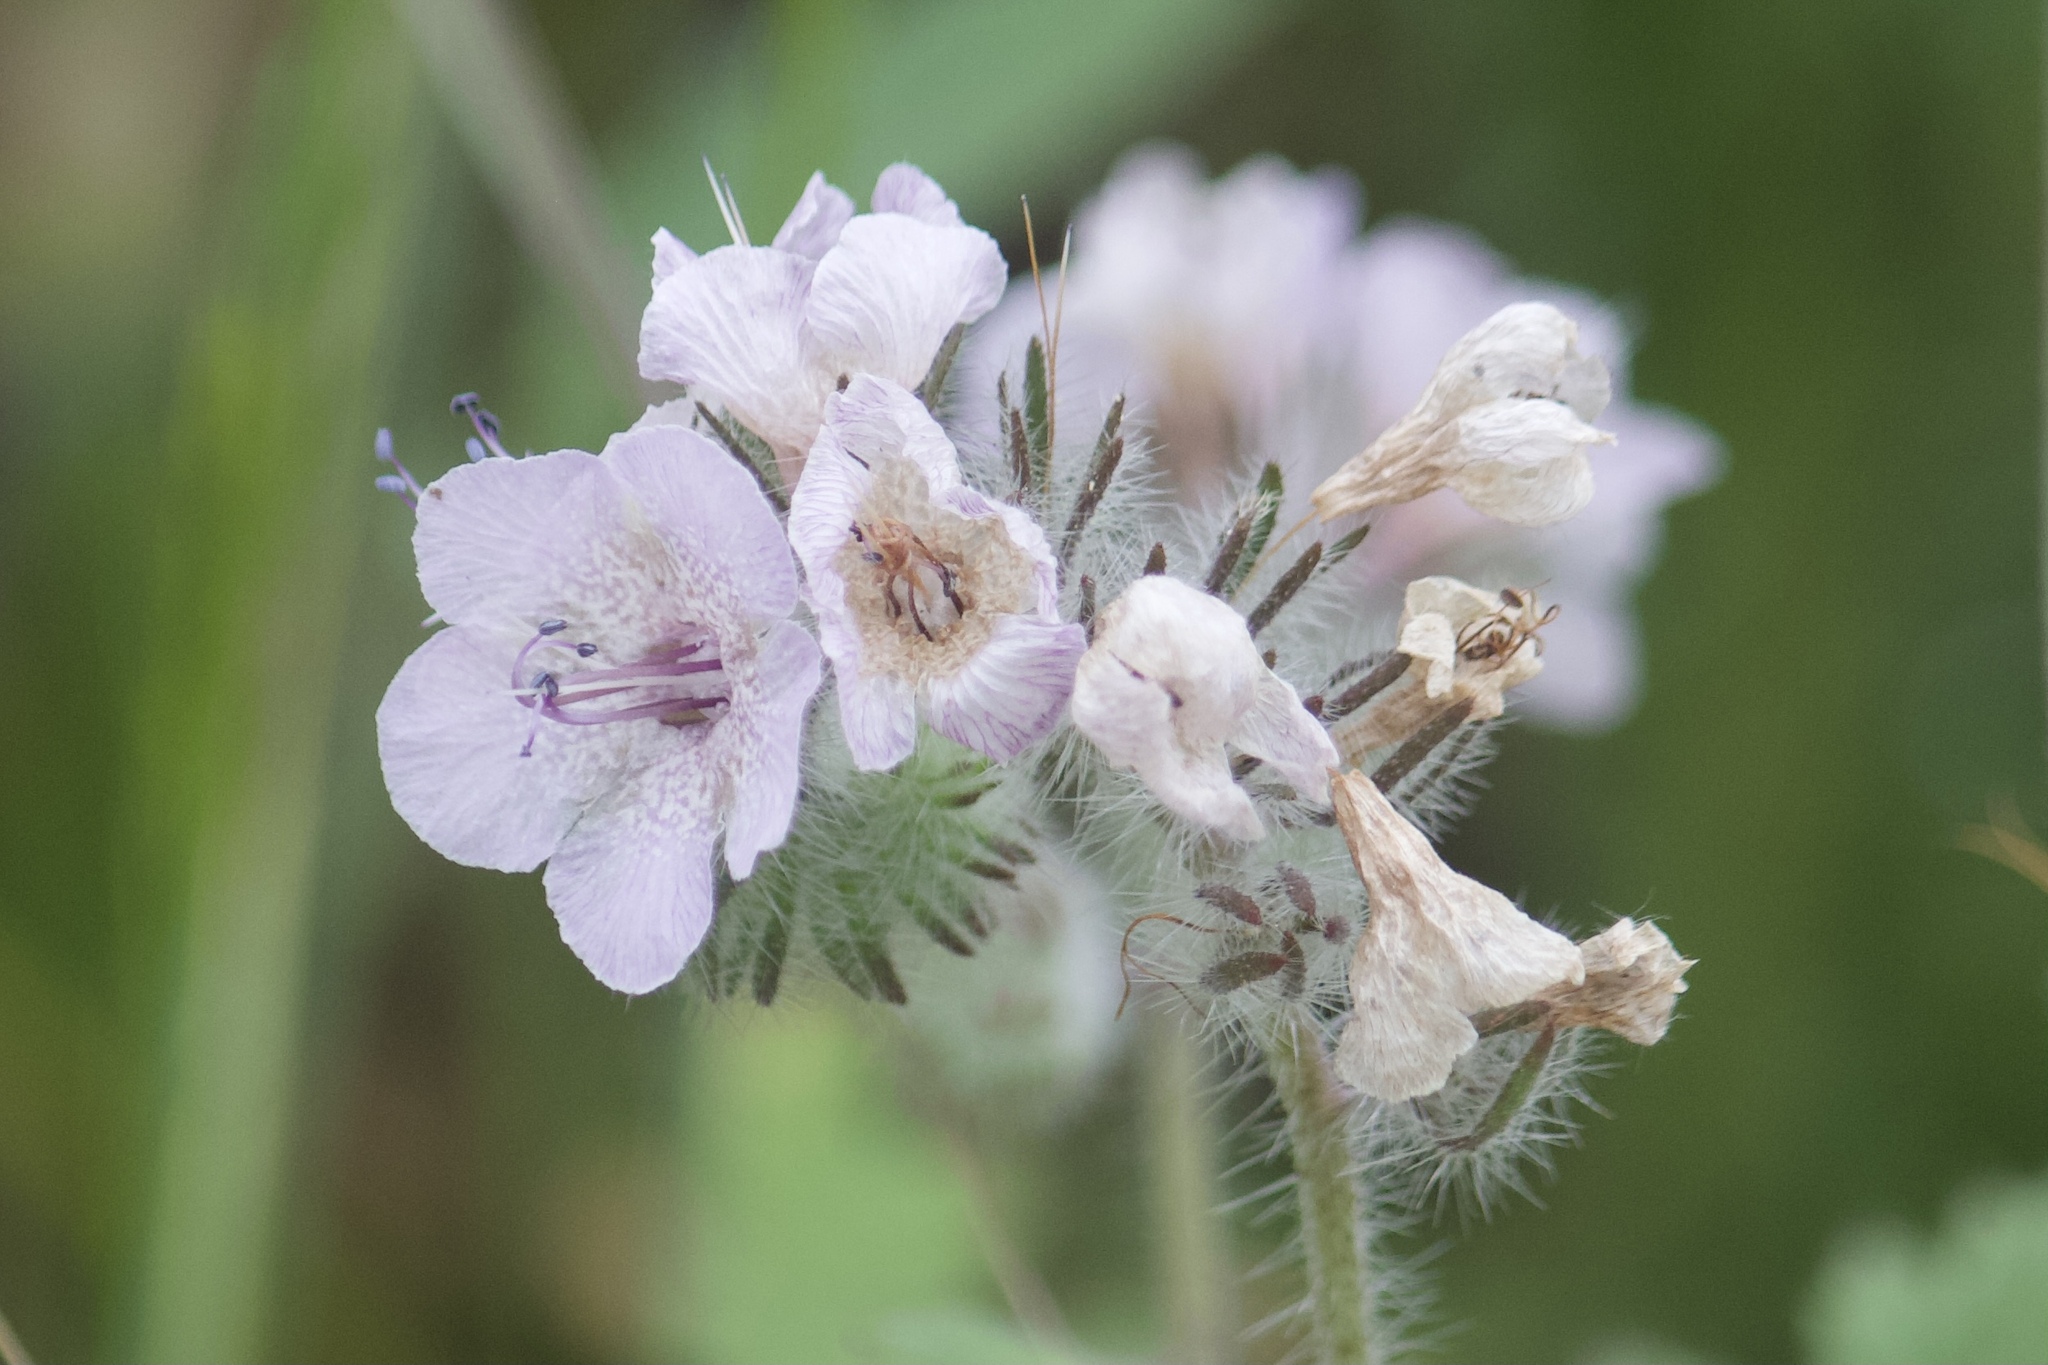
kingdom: Plantae
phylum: Tracheophyta
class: Magnoliopsida
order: Boraginales
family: Hydrophyllaceae
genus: Phacelia
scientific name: Phacelia cicutaria
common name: Caterpillar phacelia
